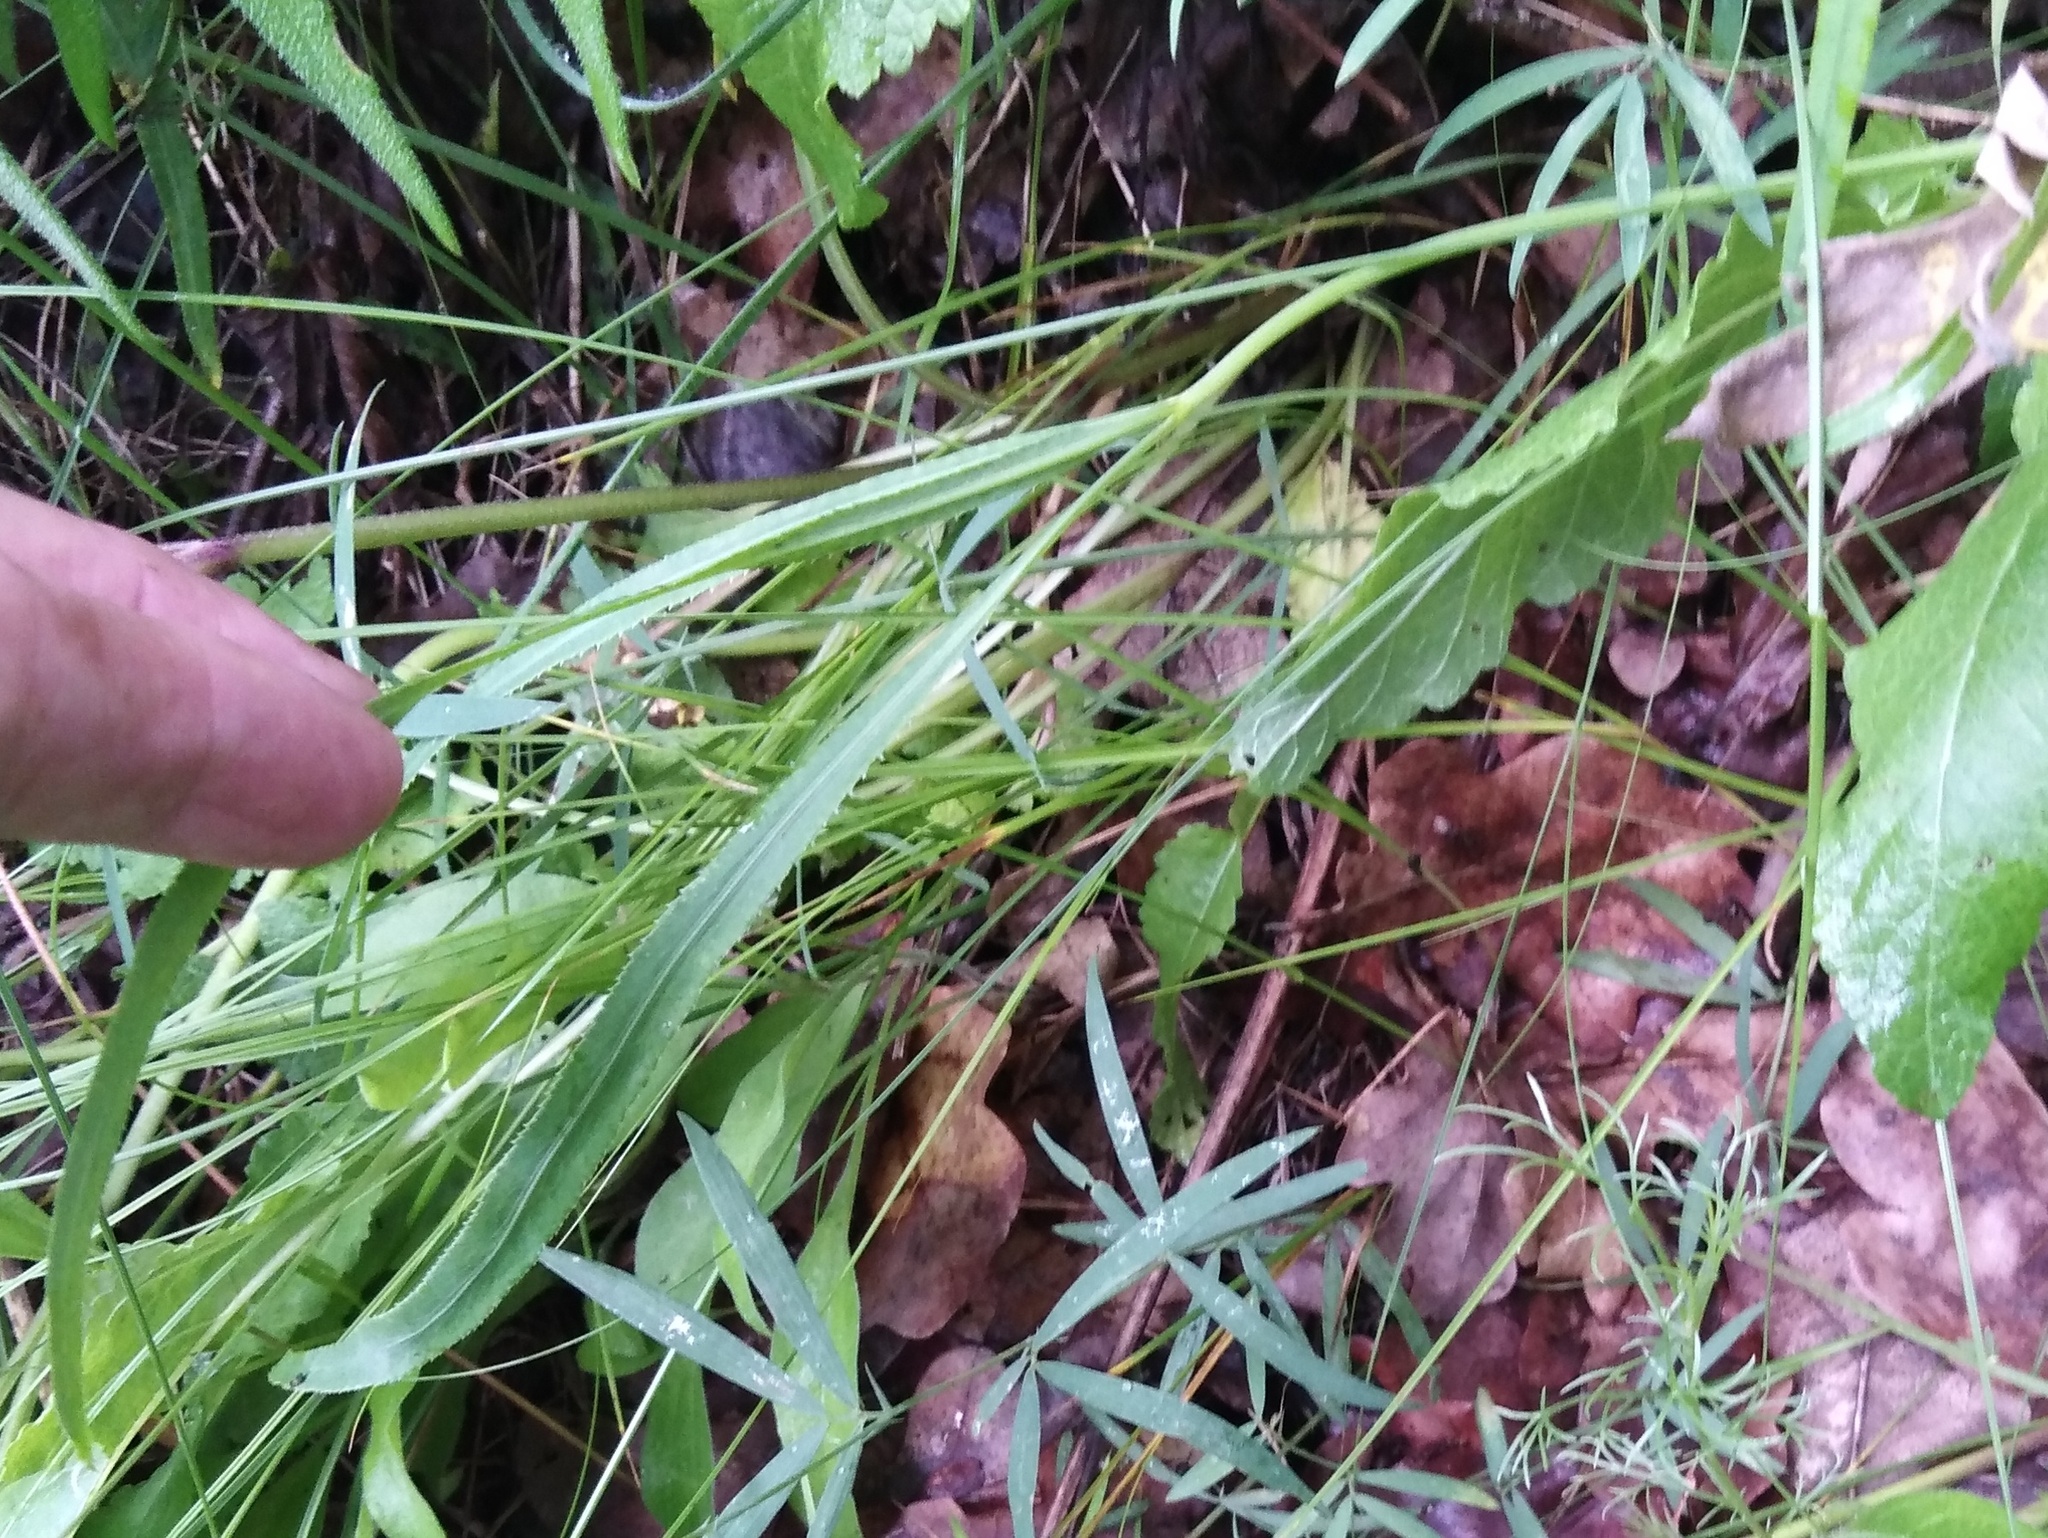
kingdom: Plantae
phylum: Tracheophyta
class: Magnoliopsida
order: Apiales
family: Apiaceae
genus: Falcaria
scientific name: Falcaria vulgaris
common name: Longleaf
